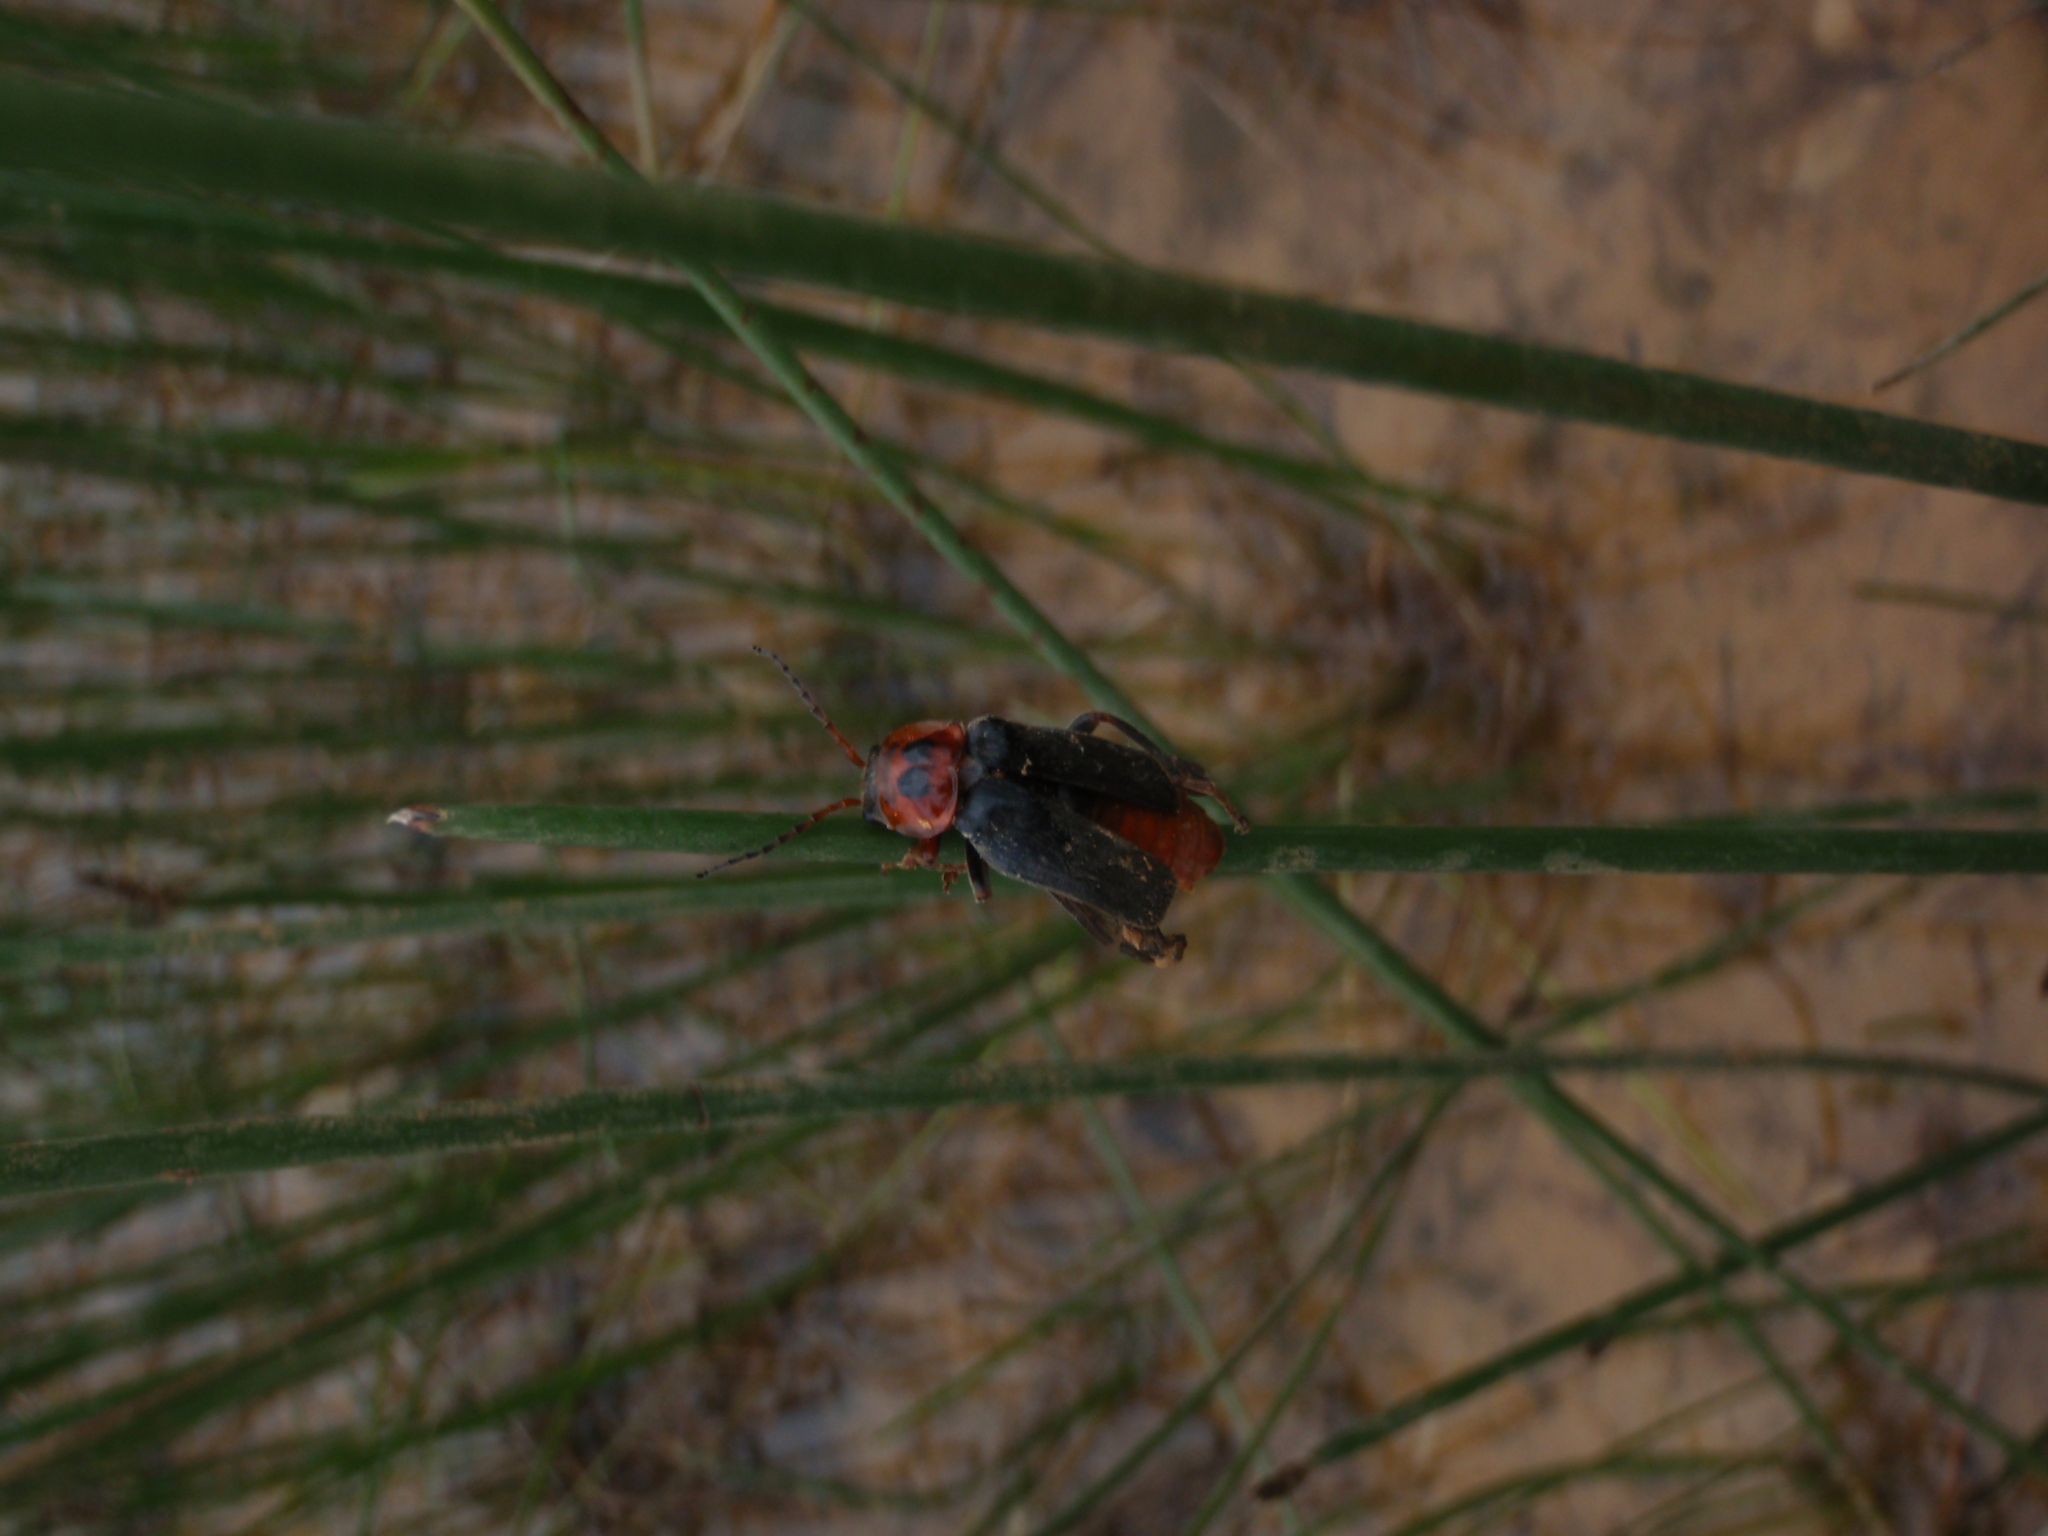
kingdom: Animalia
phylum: Arthropoda
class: Insecta
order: Coleoptera
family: Cantharidae
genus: Cantharis
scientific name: Cantharis annularis
